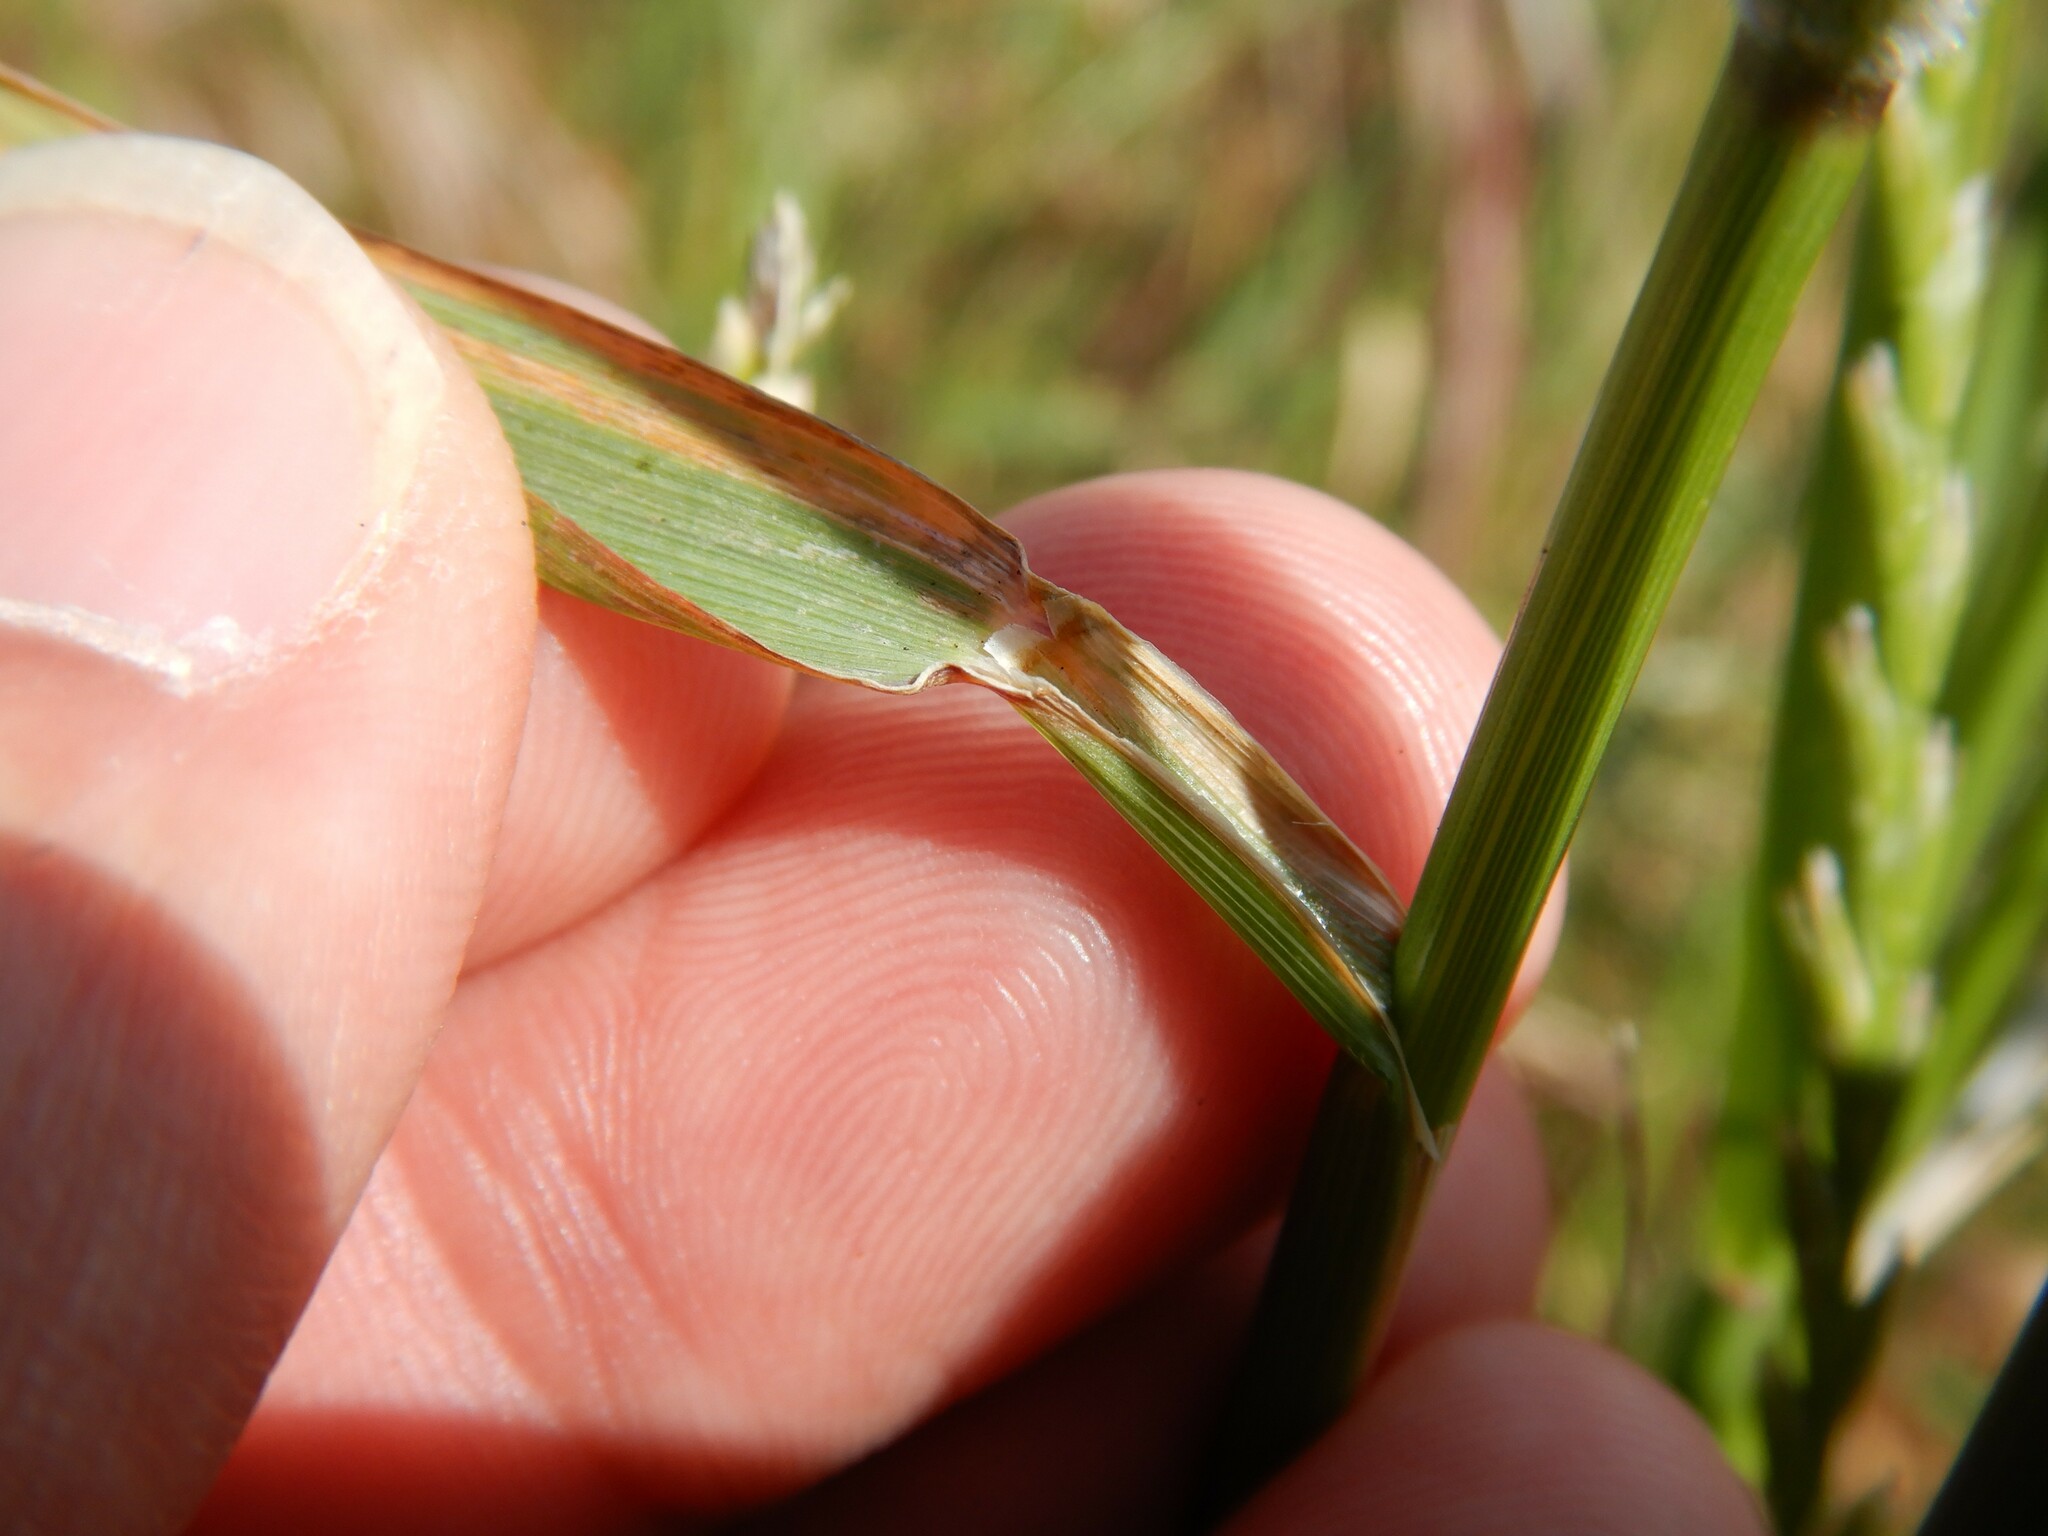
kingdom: Plantae
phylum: Tracheophyta
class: Liliopsida
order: Poales
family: Poaceae
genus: Arrhenatherum
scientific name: Arrhenatherum elatius
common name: Tall oatgrass
